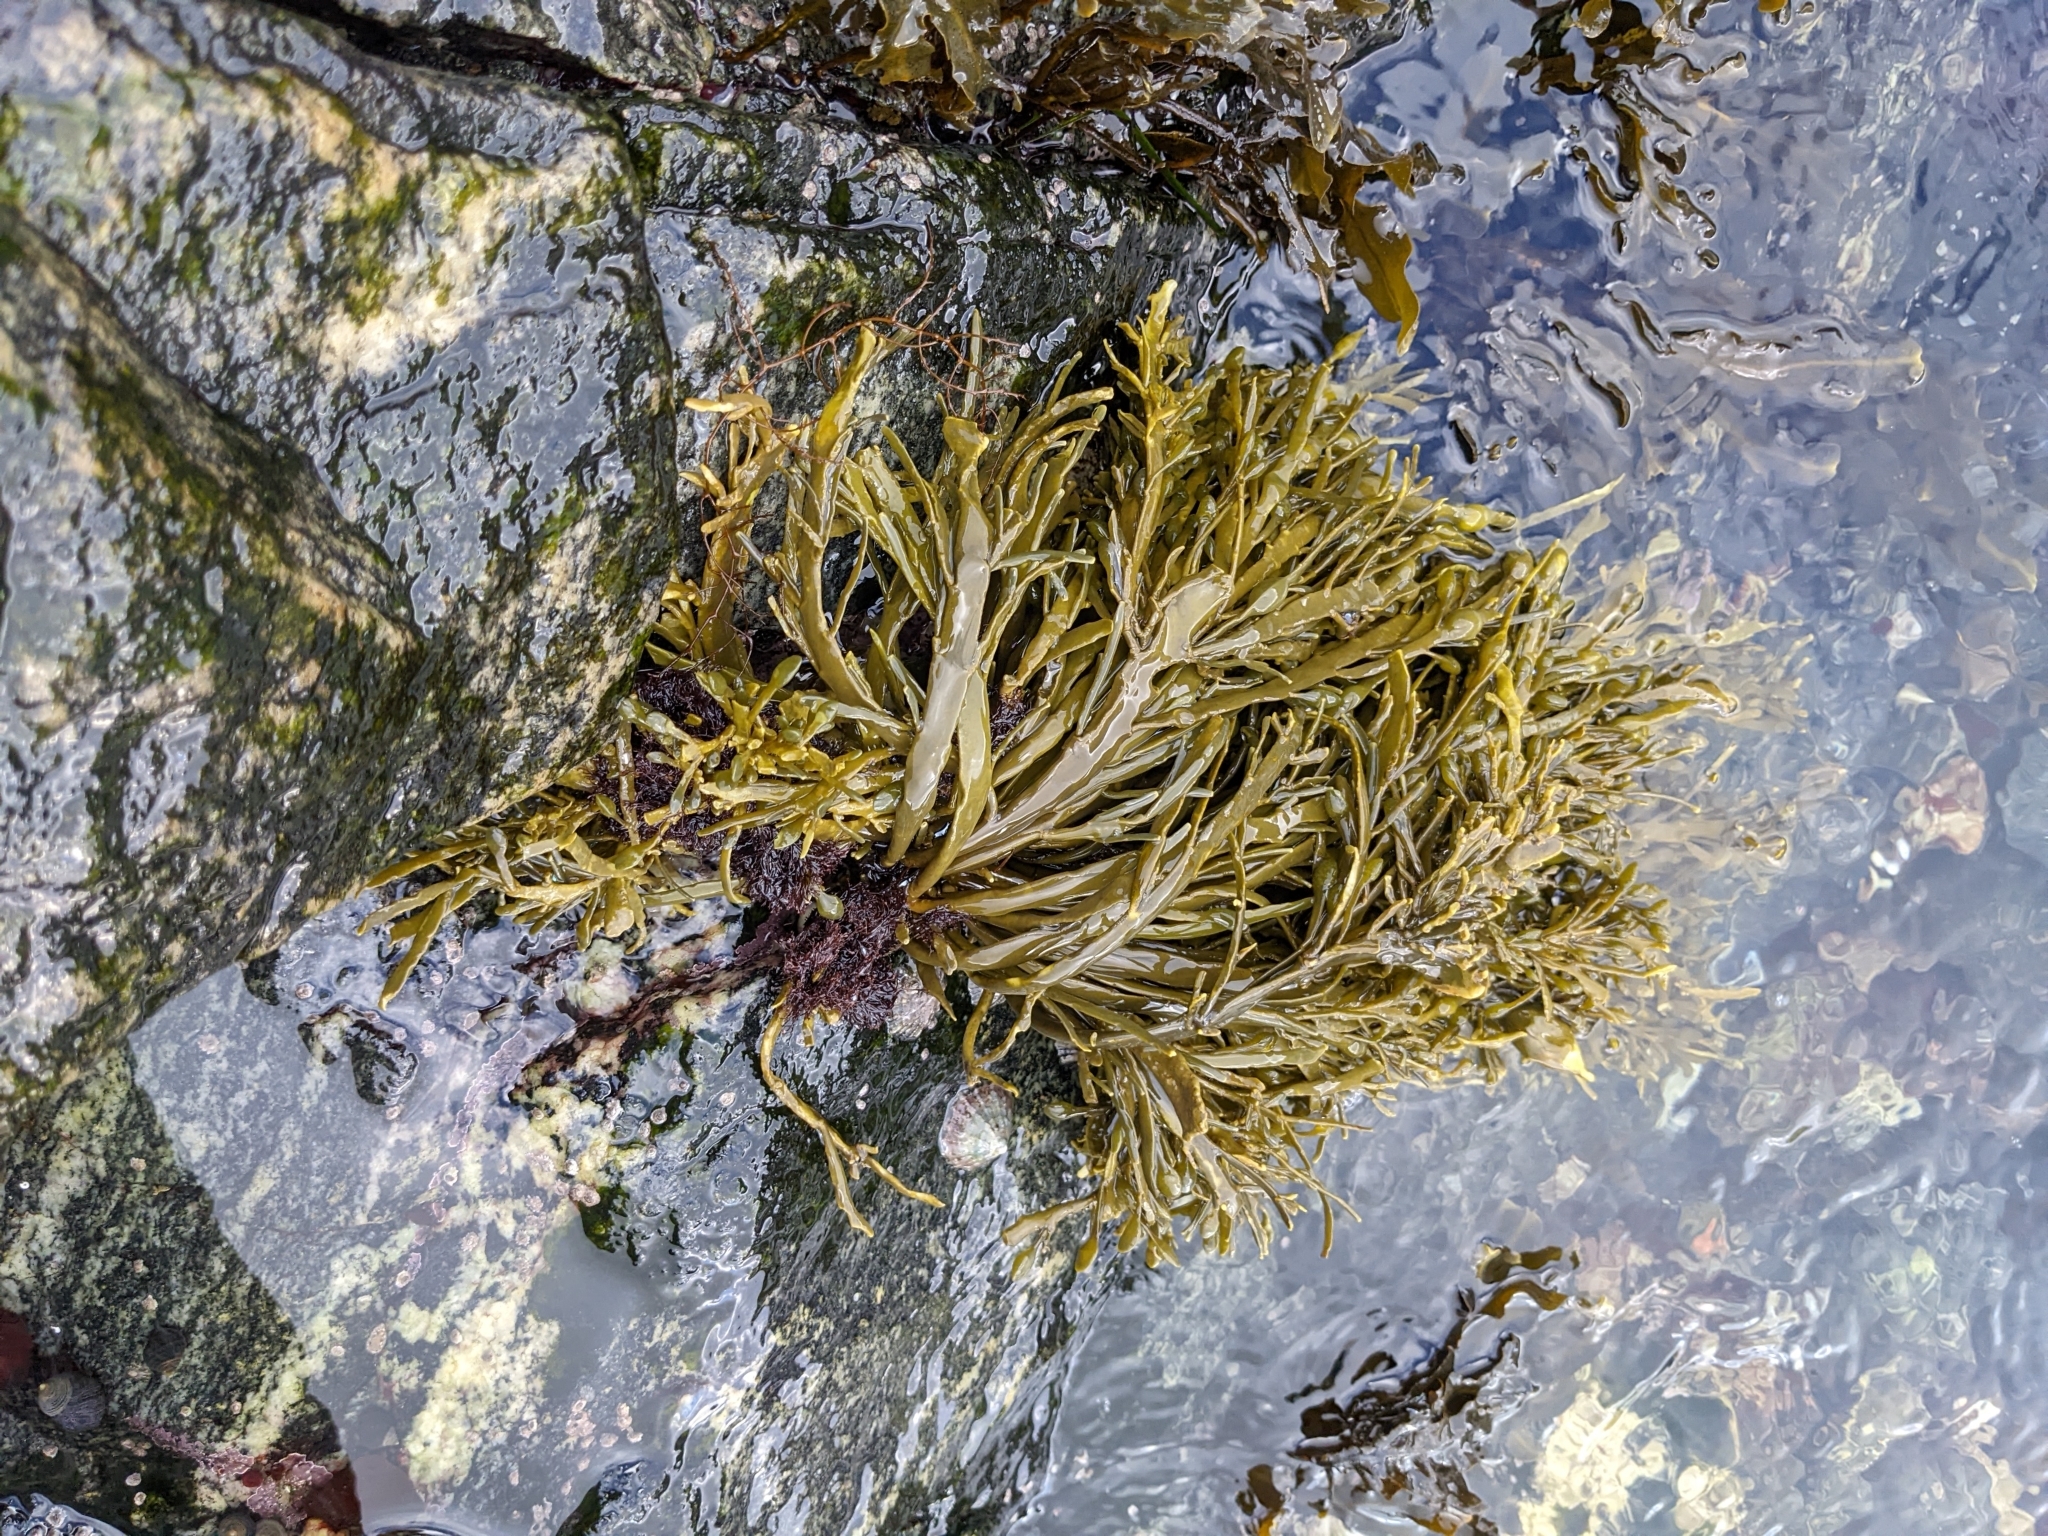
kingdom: Chromista
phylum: Ochrophyta
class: Phaeophyceae
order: Fucales
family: Fucaceae
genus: Ascophyllum
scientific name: Ascophyllum nodosum
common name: Knotted wrack
